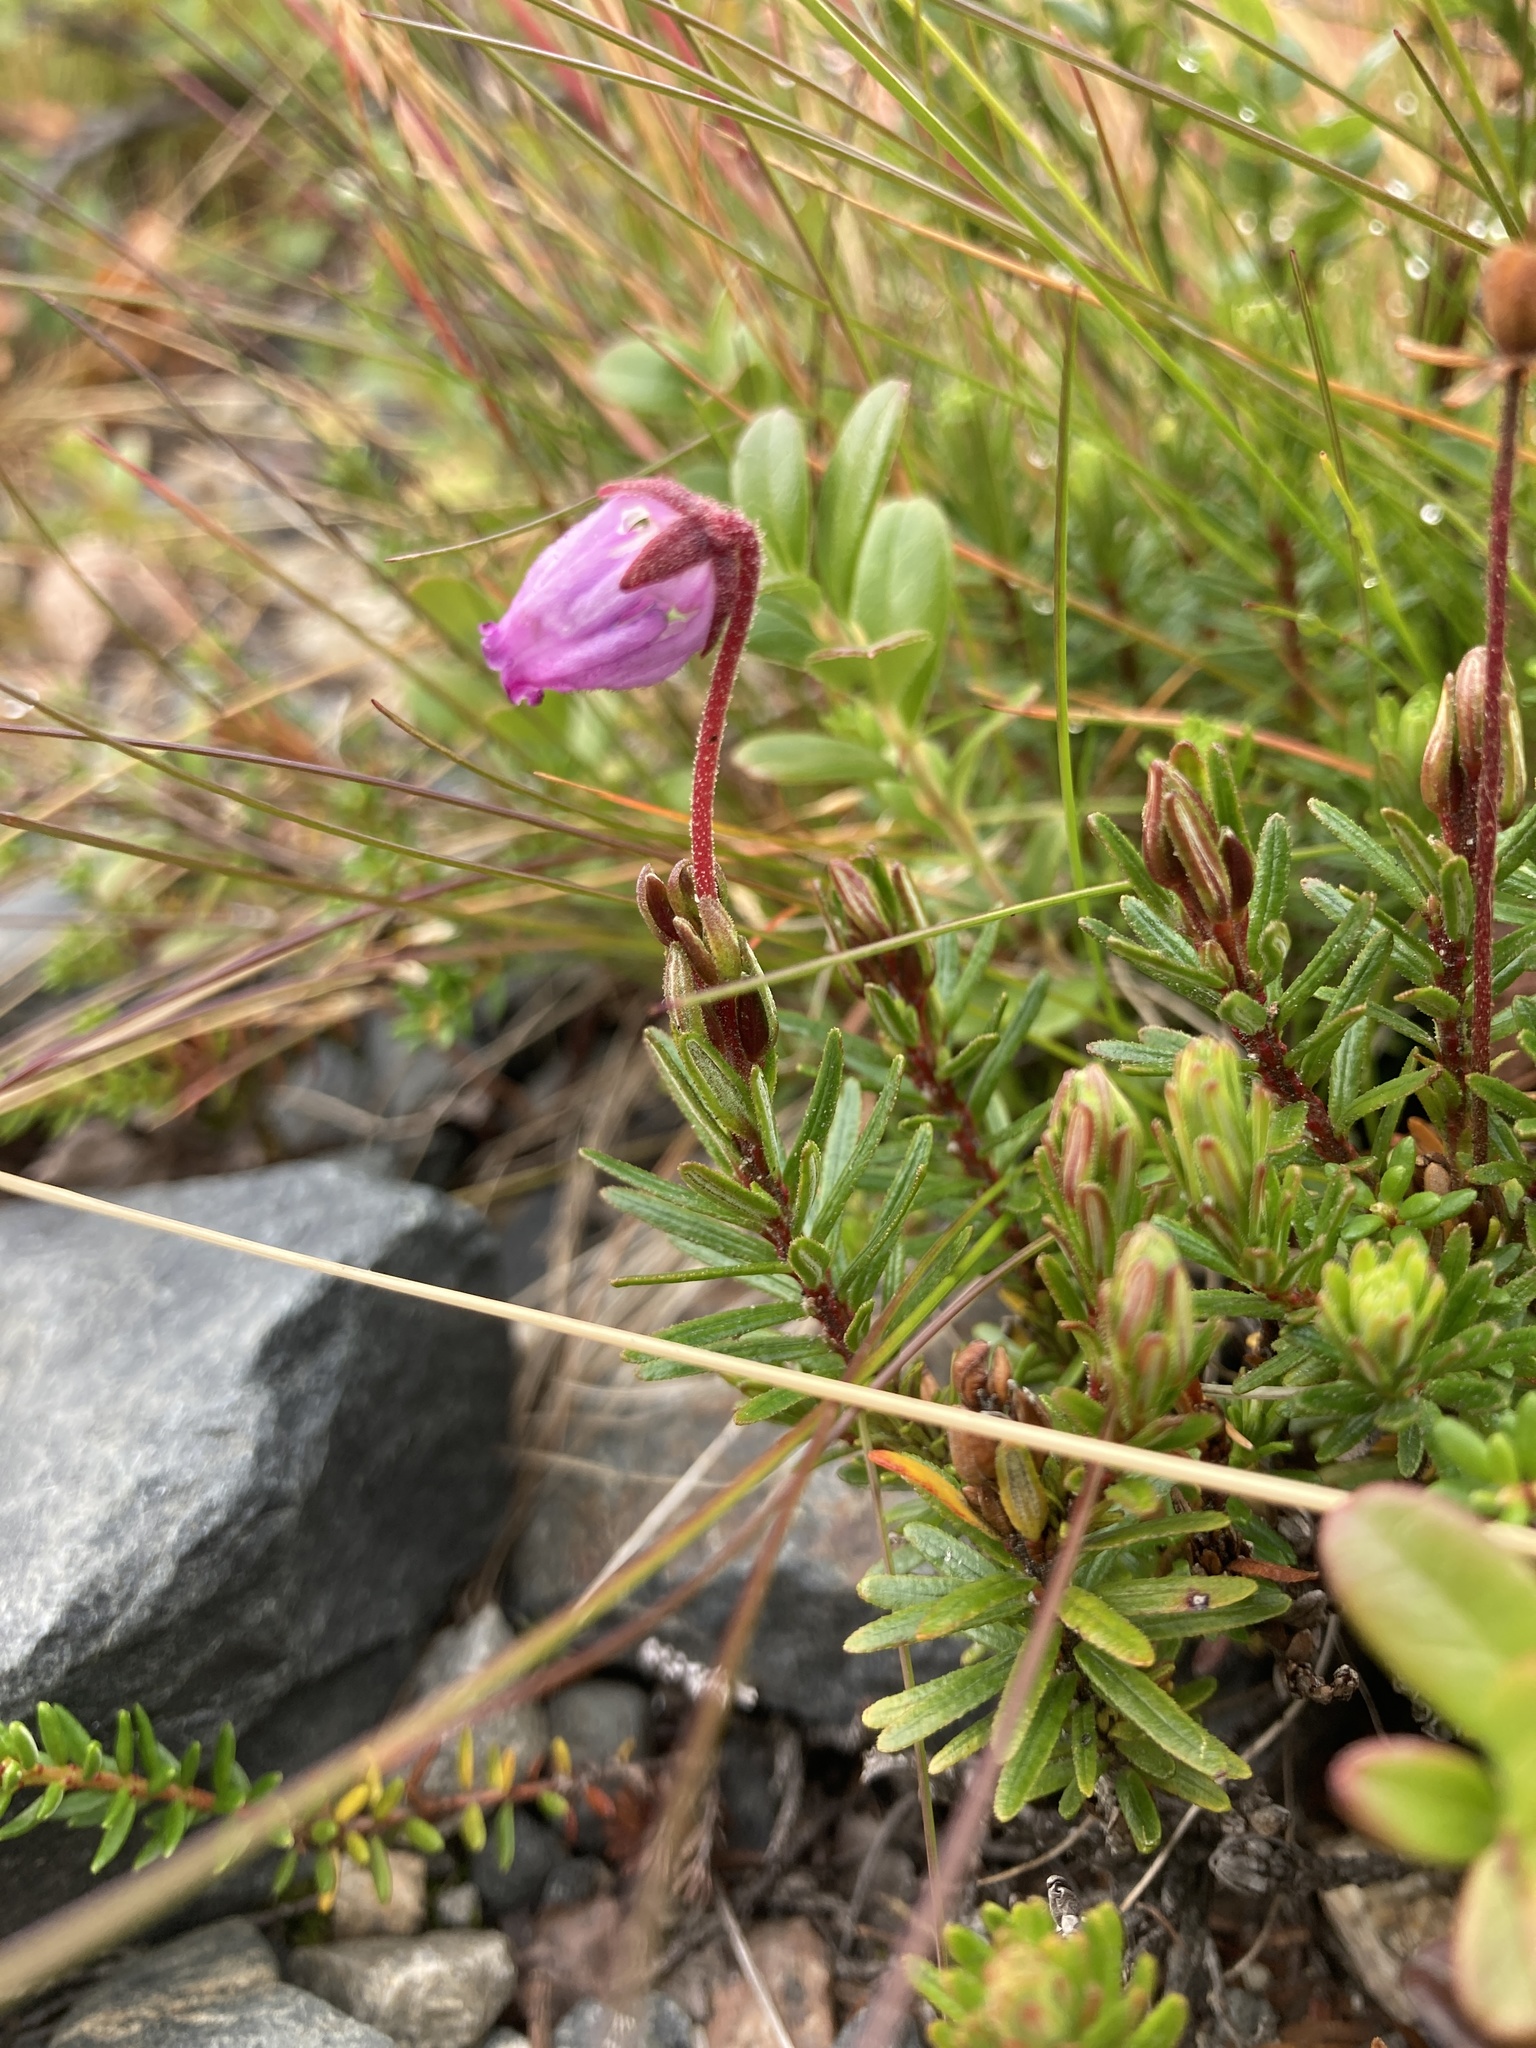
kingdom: Plantae
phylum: Tracheophyta
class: Magnoliopsida
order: Ericales
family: Ericaceae
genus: Phyllodoce
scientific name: Phyllodoce caerulea
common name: Blue heath
